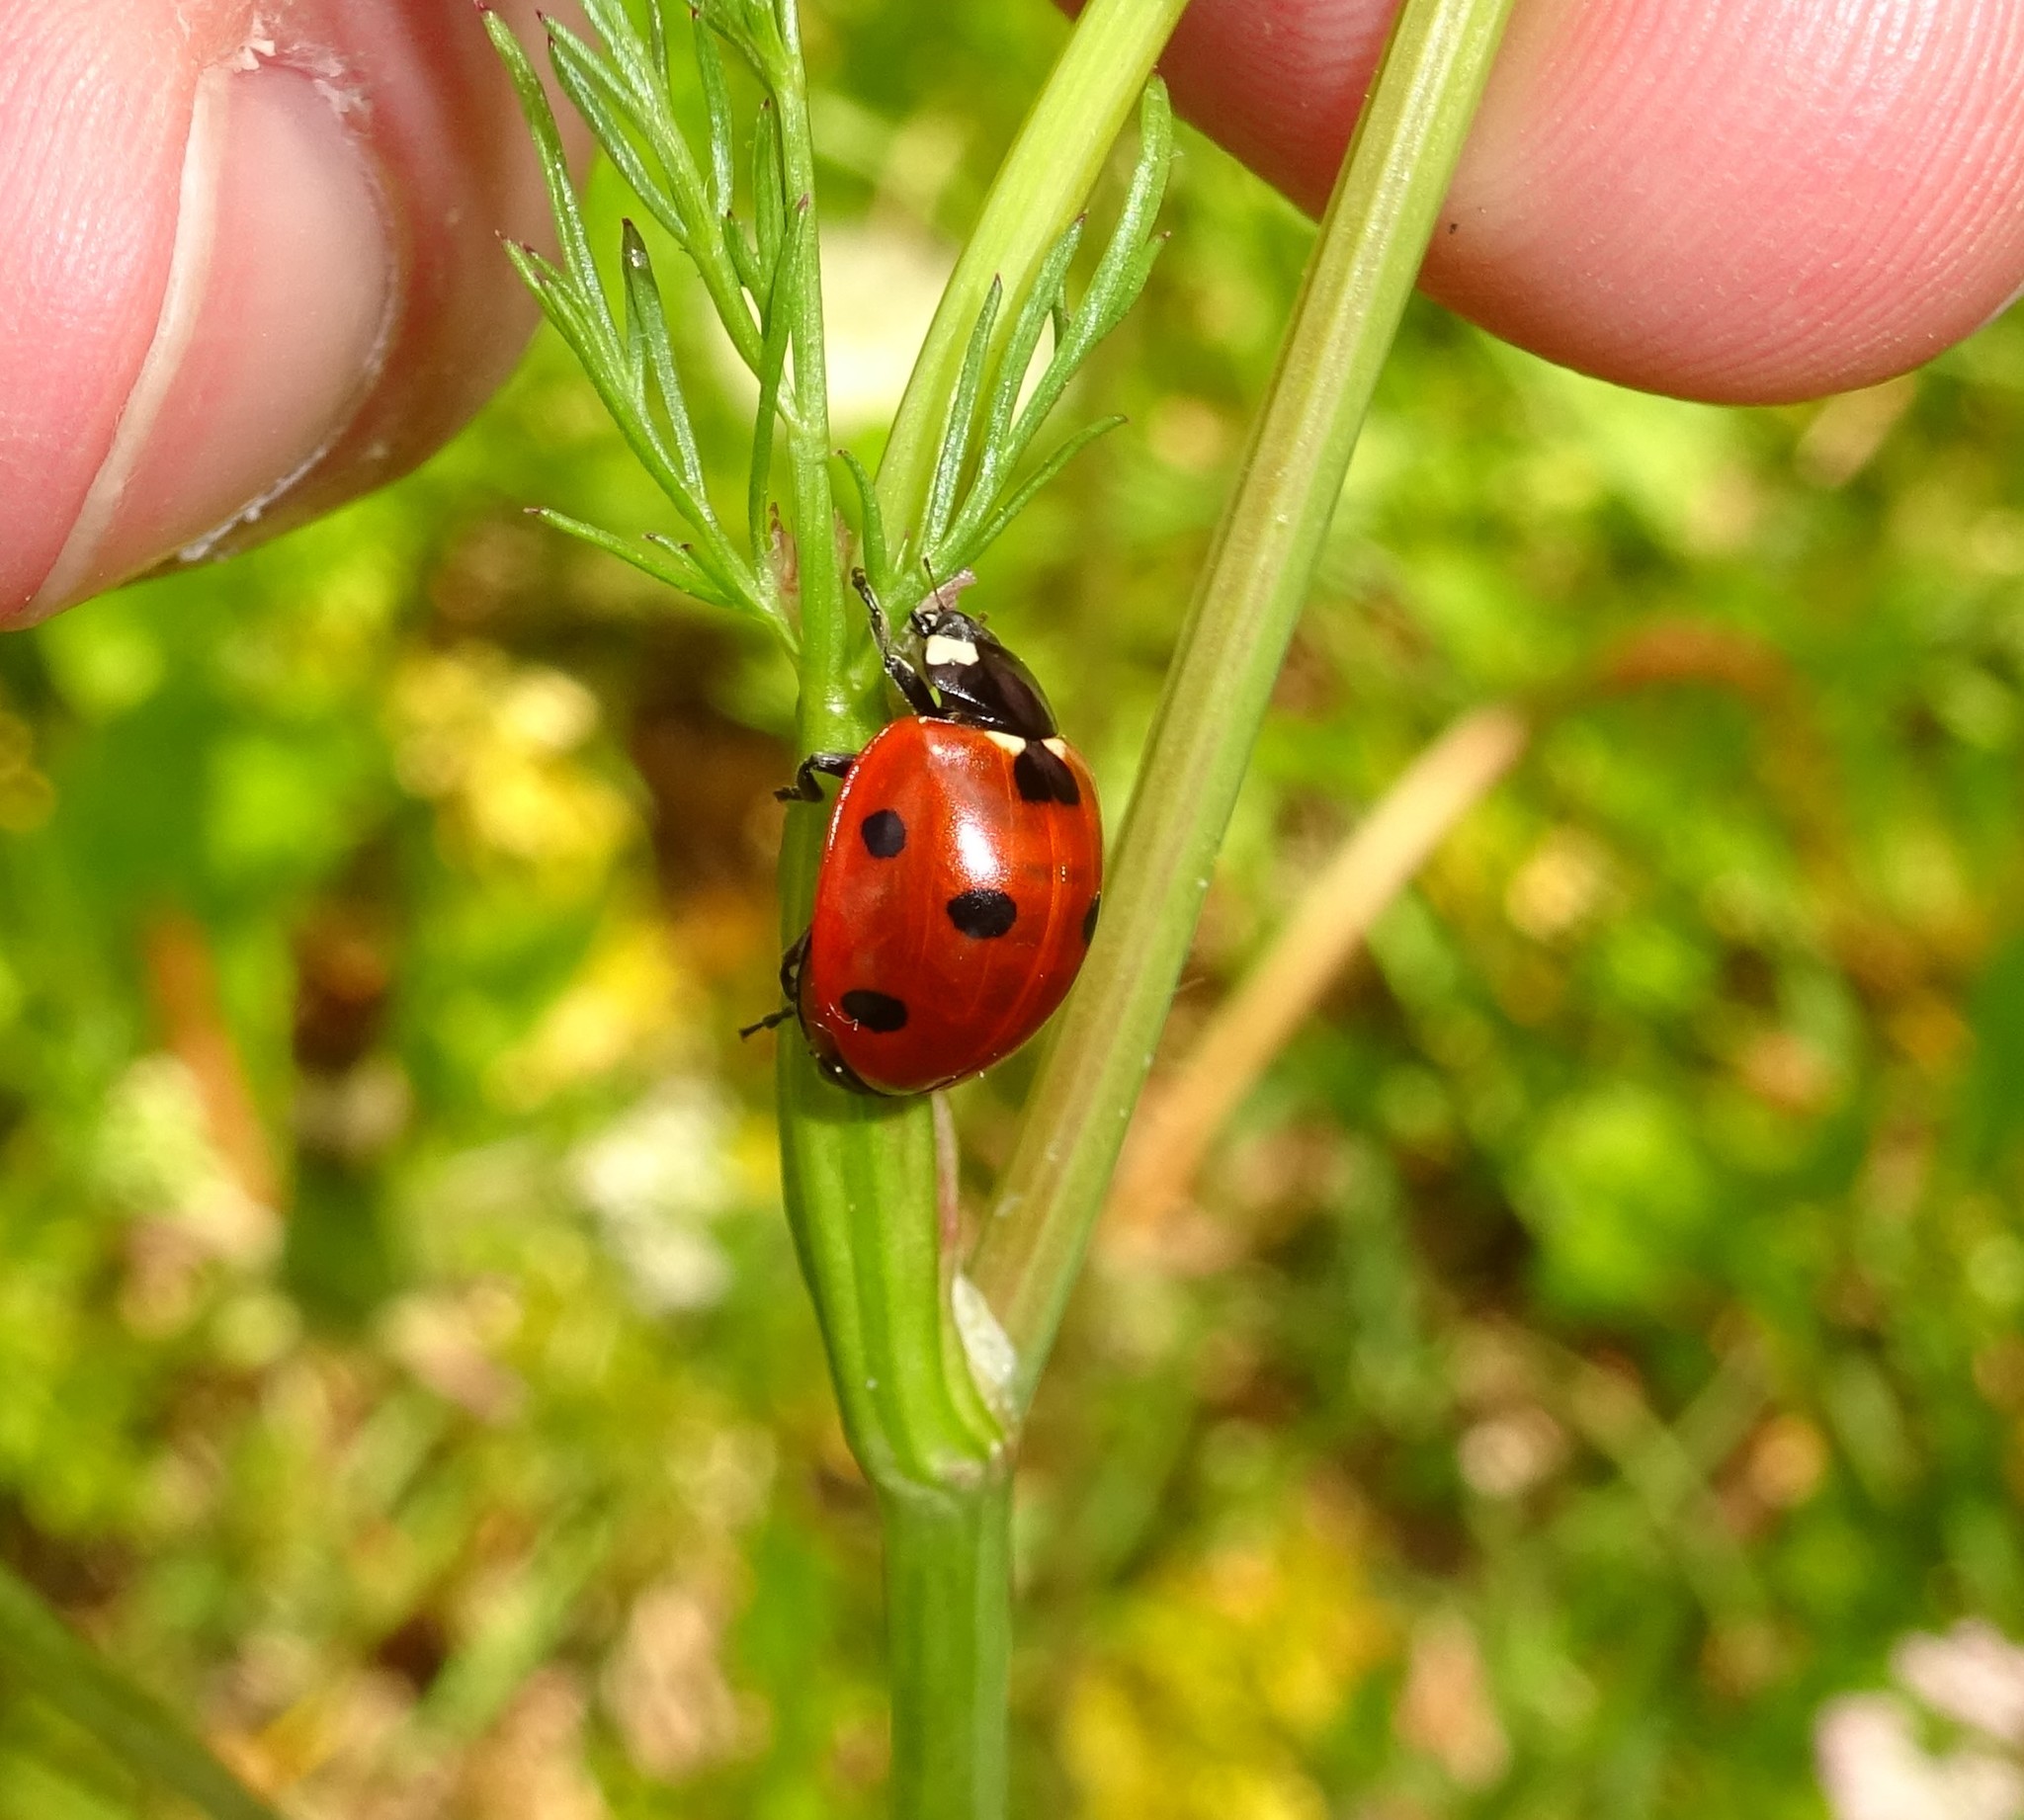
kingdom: Animalia
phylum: Arthropoda
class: Insecta
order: Coleoptera
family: Coccinellidae
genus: Coccinella
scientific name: Coccinella septempunctata
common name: Sevenspotted lady beetle
